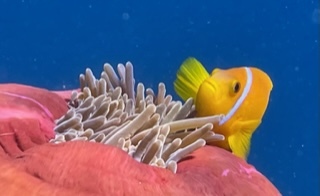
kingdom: Animalia
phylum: Chordata
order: Perciformes
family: Pomacentridae
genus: Amphiprion
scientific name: Amphiprion nigripes
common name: Maldive anemonefish
